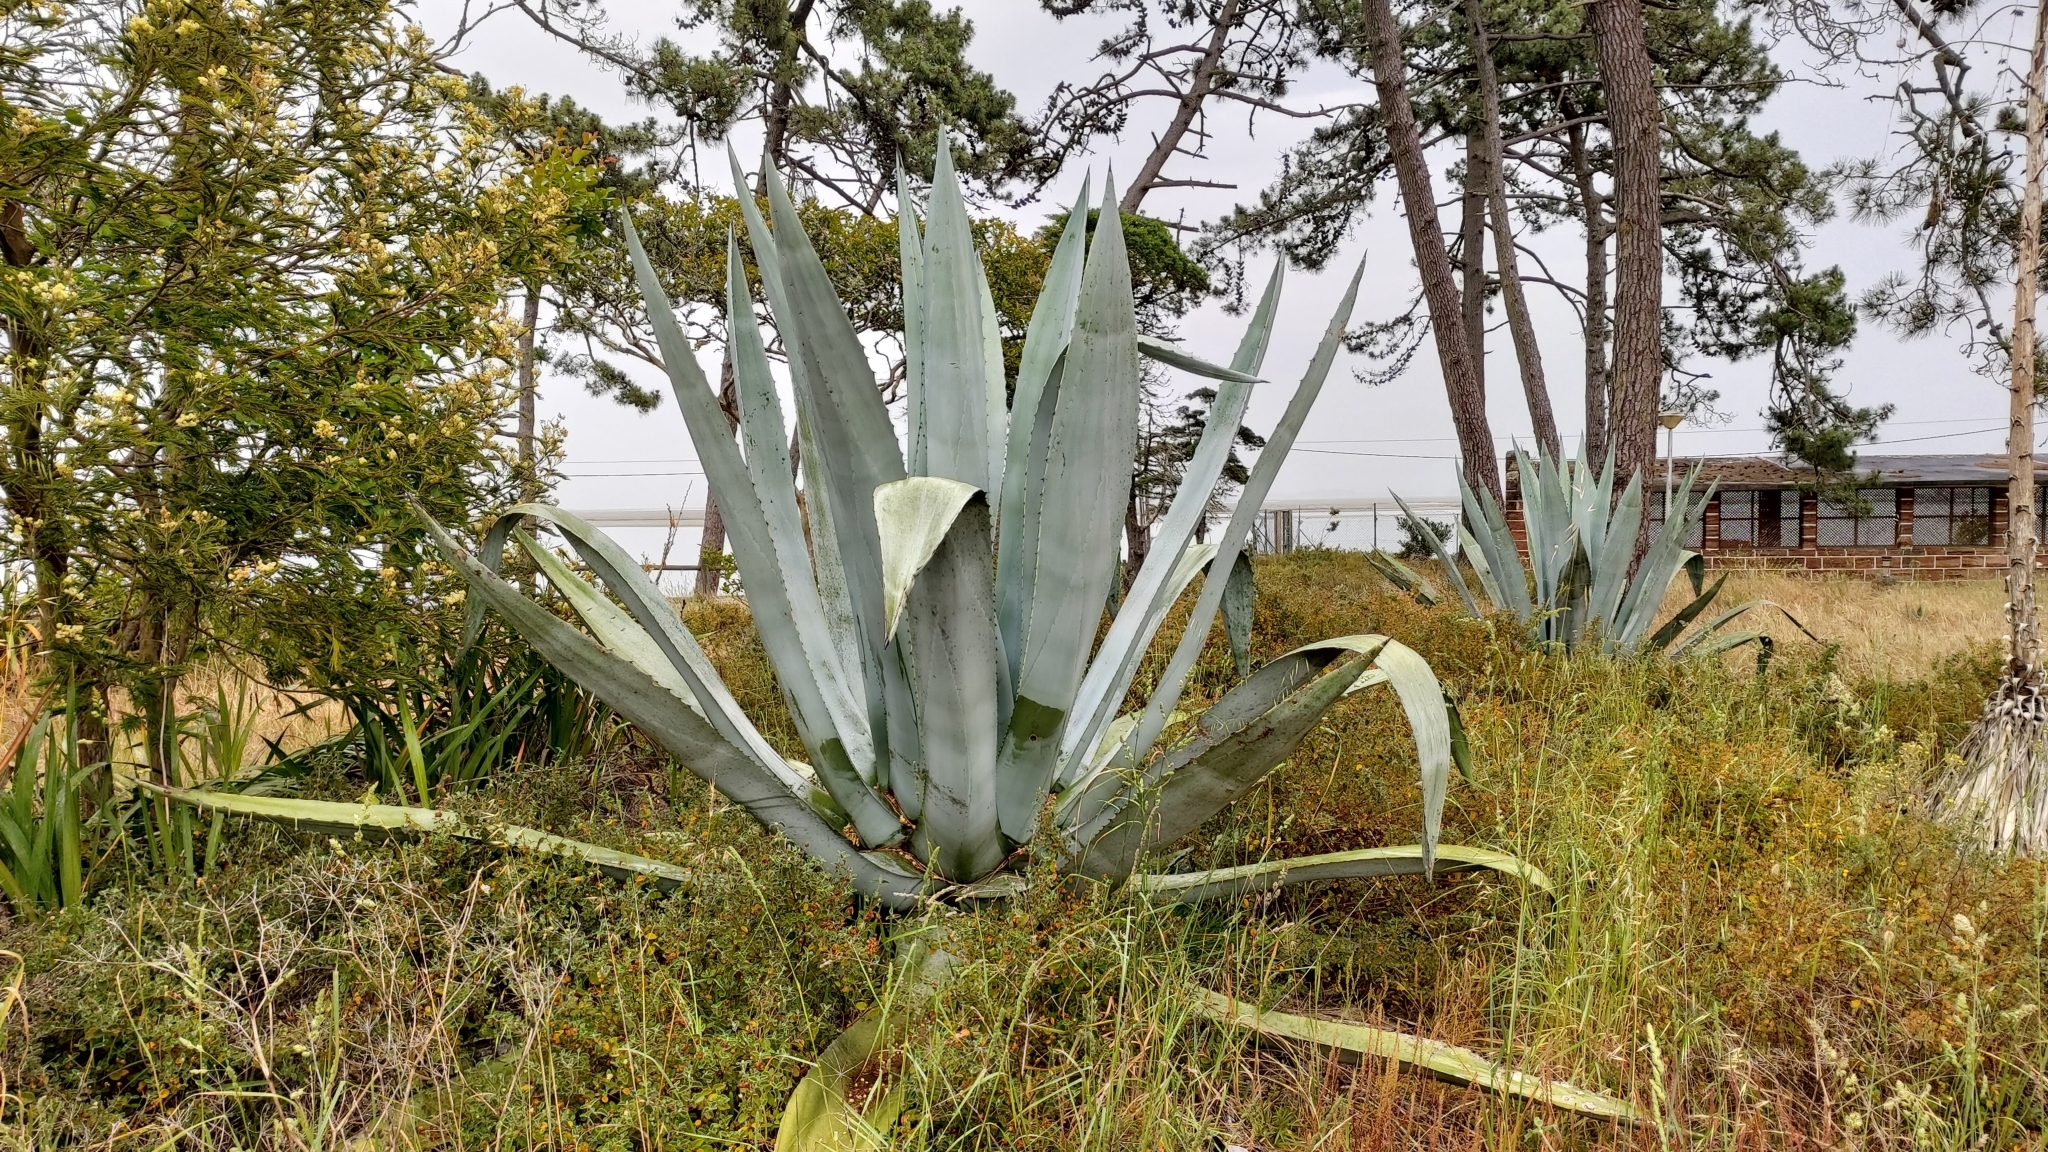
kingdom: Plantae
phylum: Tracheophyta
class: Liliopsida
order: Asparagales
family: Asparagaceae
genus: Agave
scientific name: Agave americana
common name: Centuryplant
